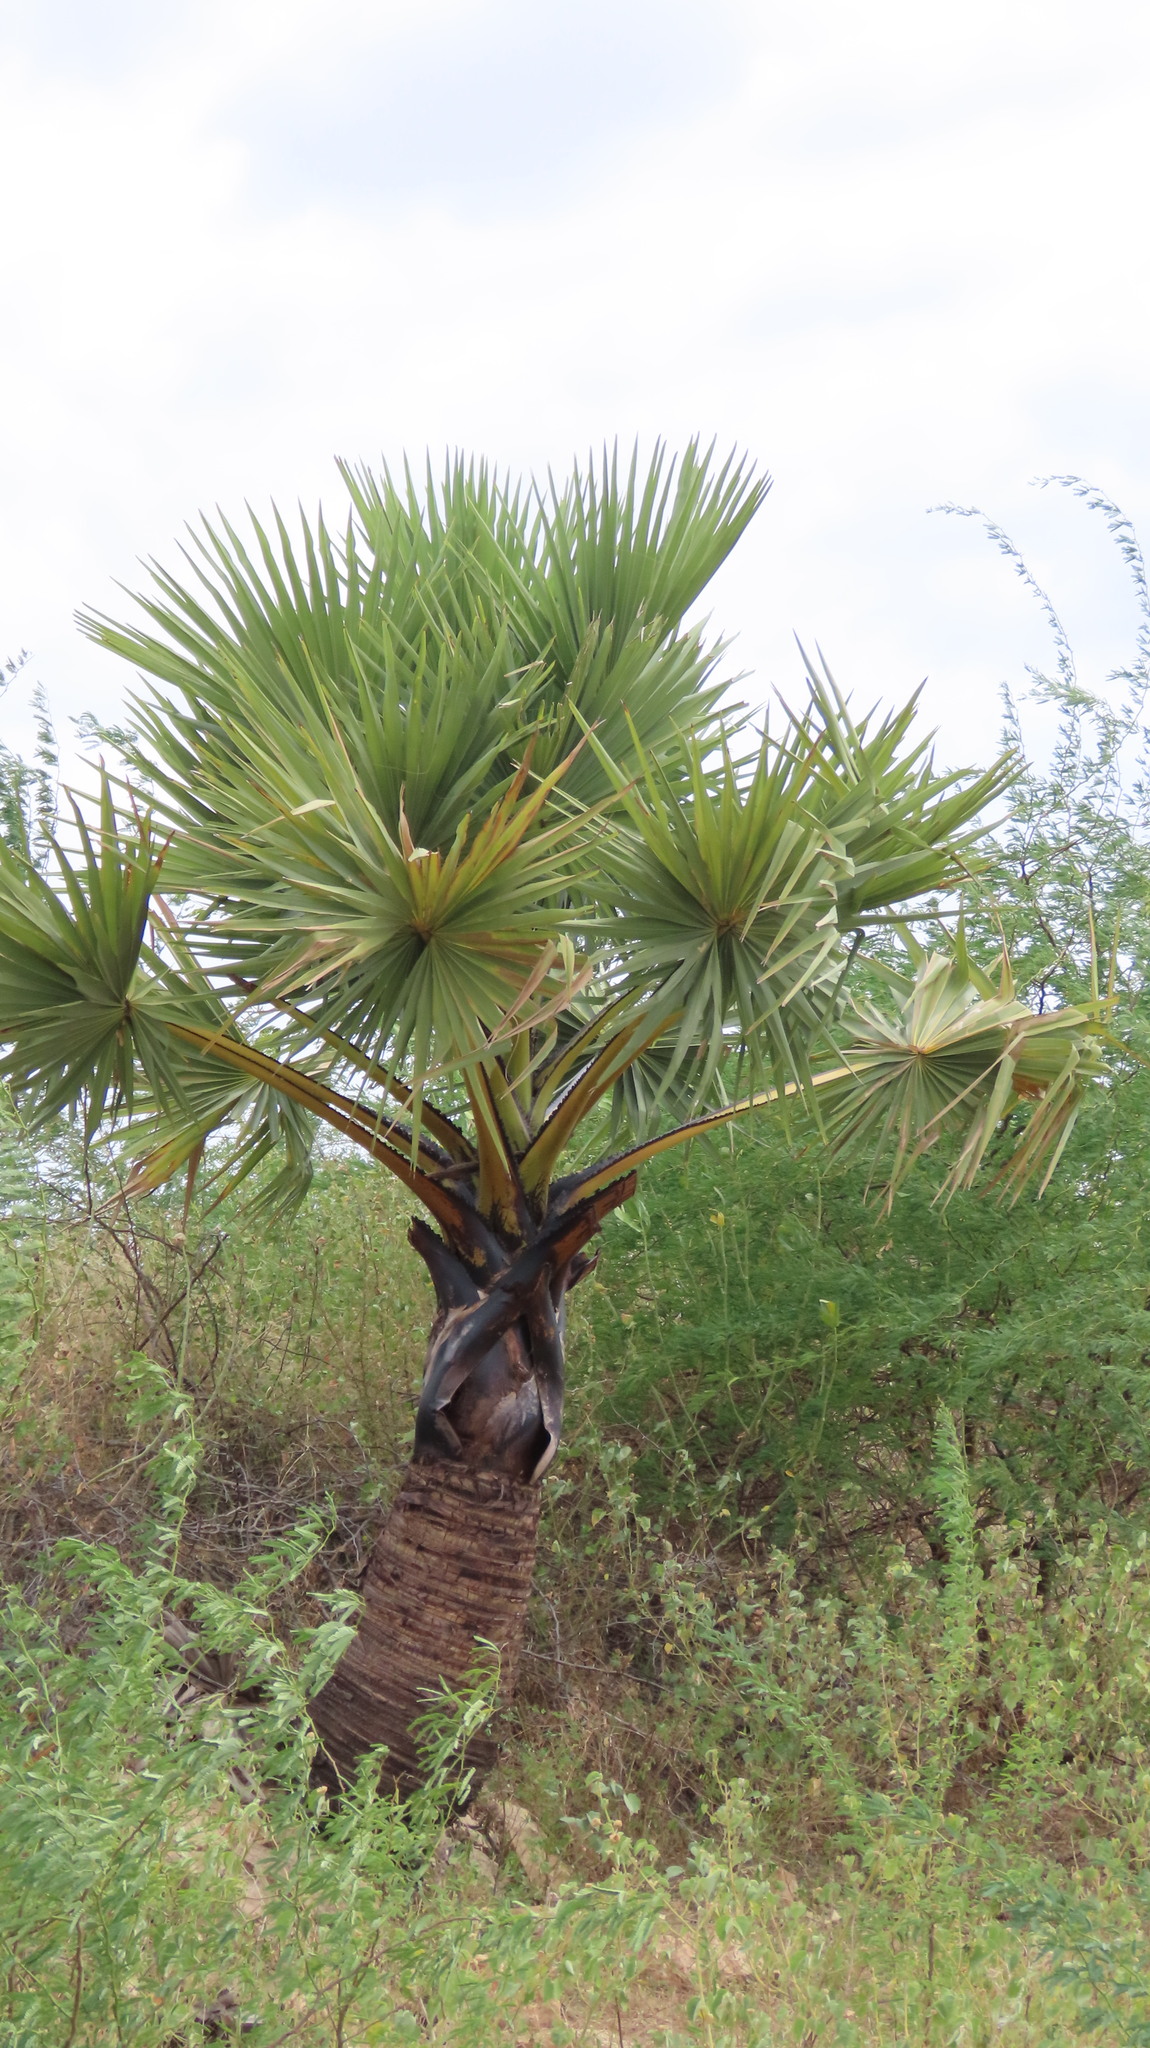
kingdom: Plantae
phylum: Tracheophyta
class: Liliopsida
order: Arecales
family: Arecaceae
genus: Borassus
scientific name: Borassus flabellifer
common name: Palmyra palm
